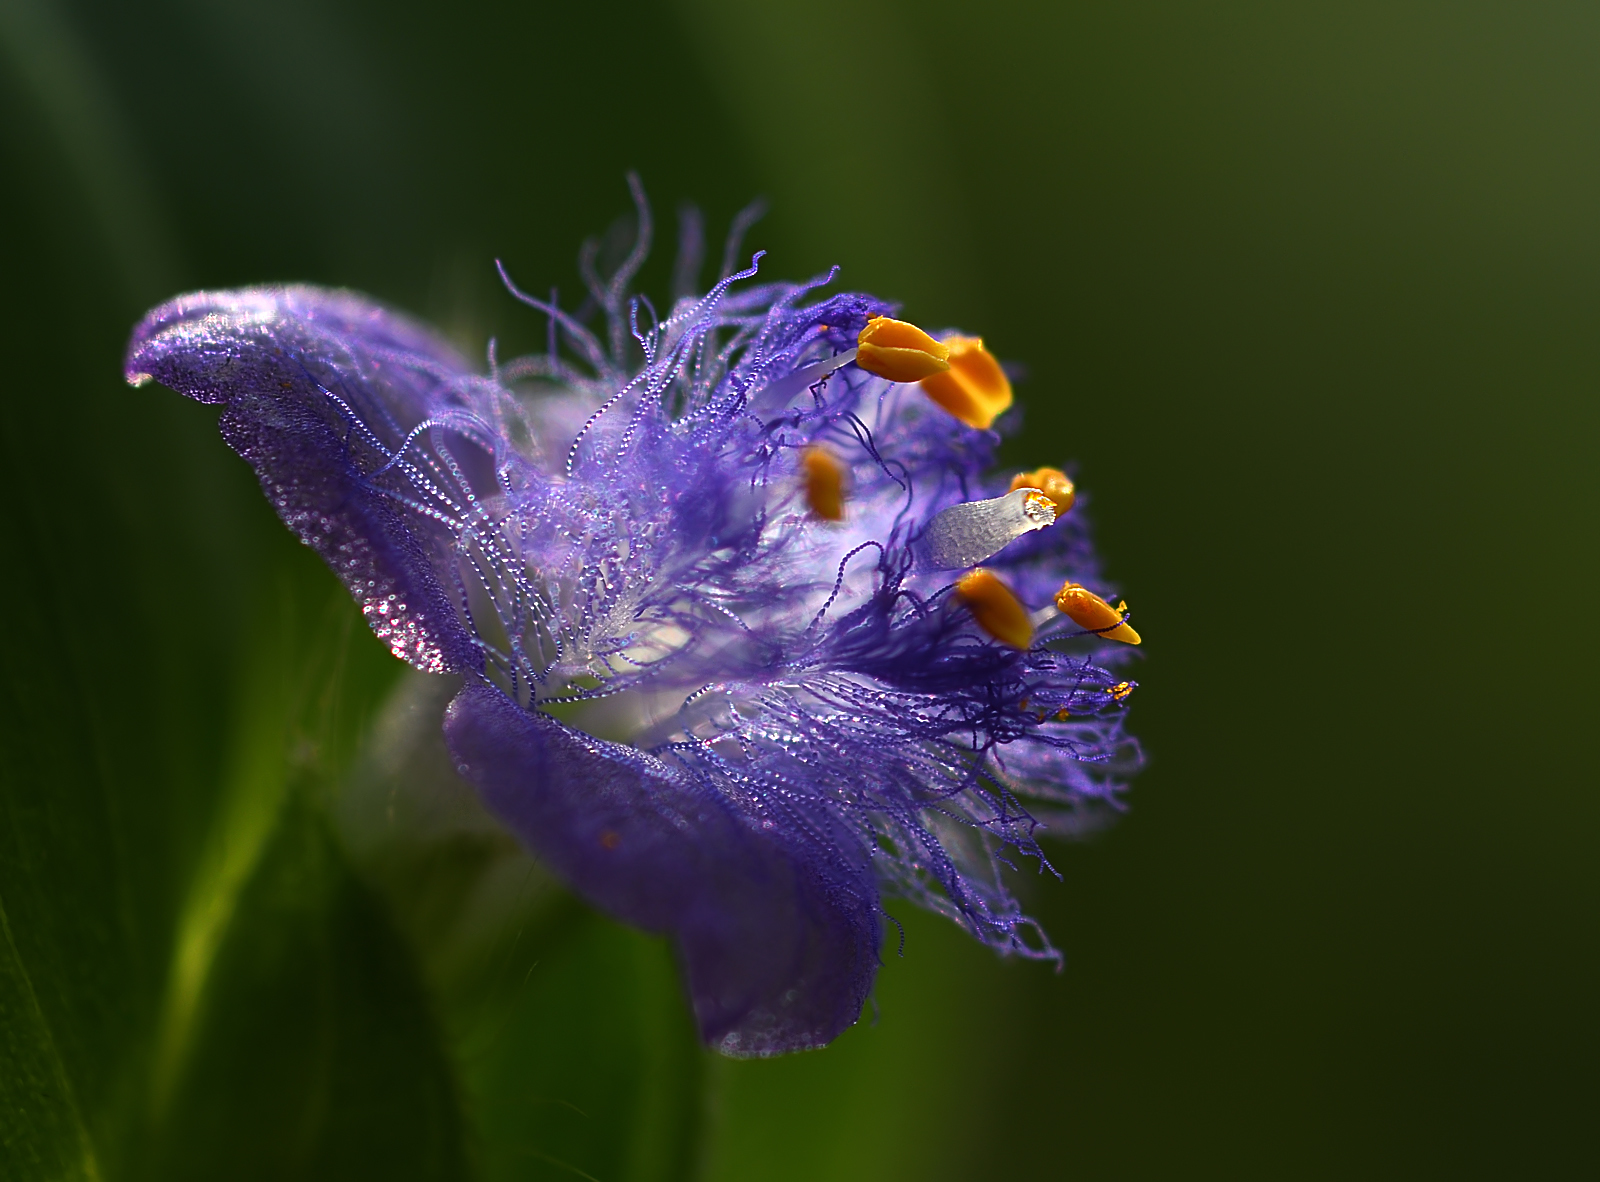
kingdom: Plantae
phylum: Tracheophyta
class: Liliopsida
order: Commelinales
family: Commelinaceae
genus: Cyanotis
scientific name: Cyanotis cristata
